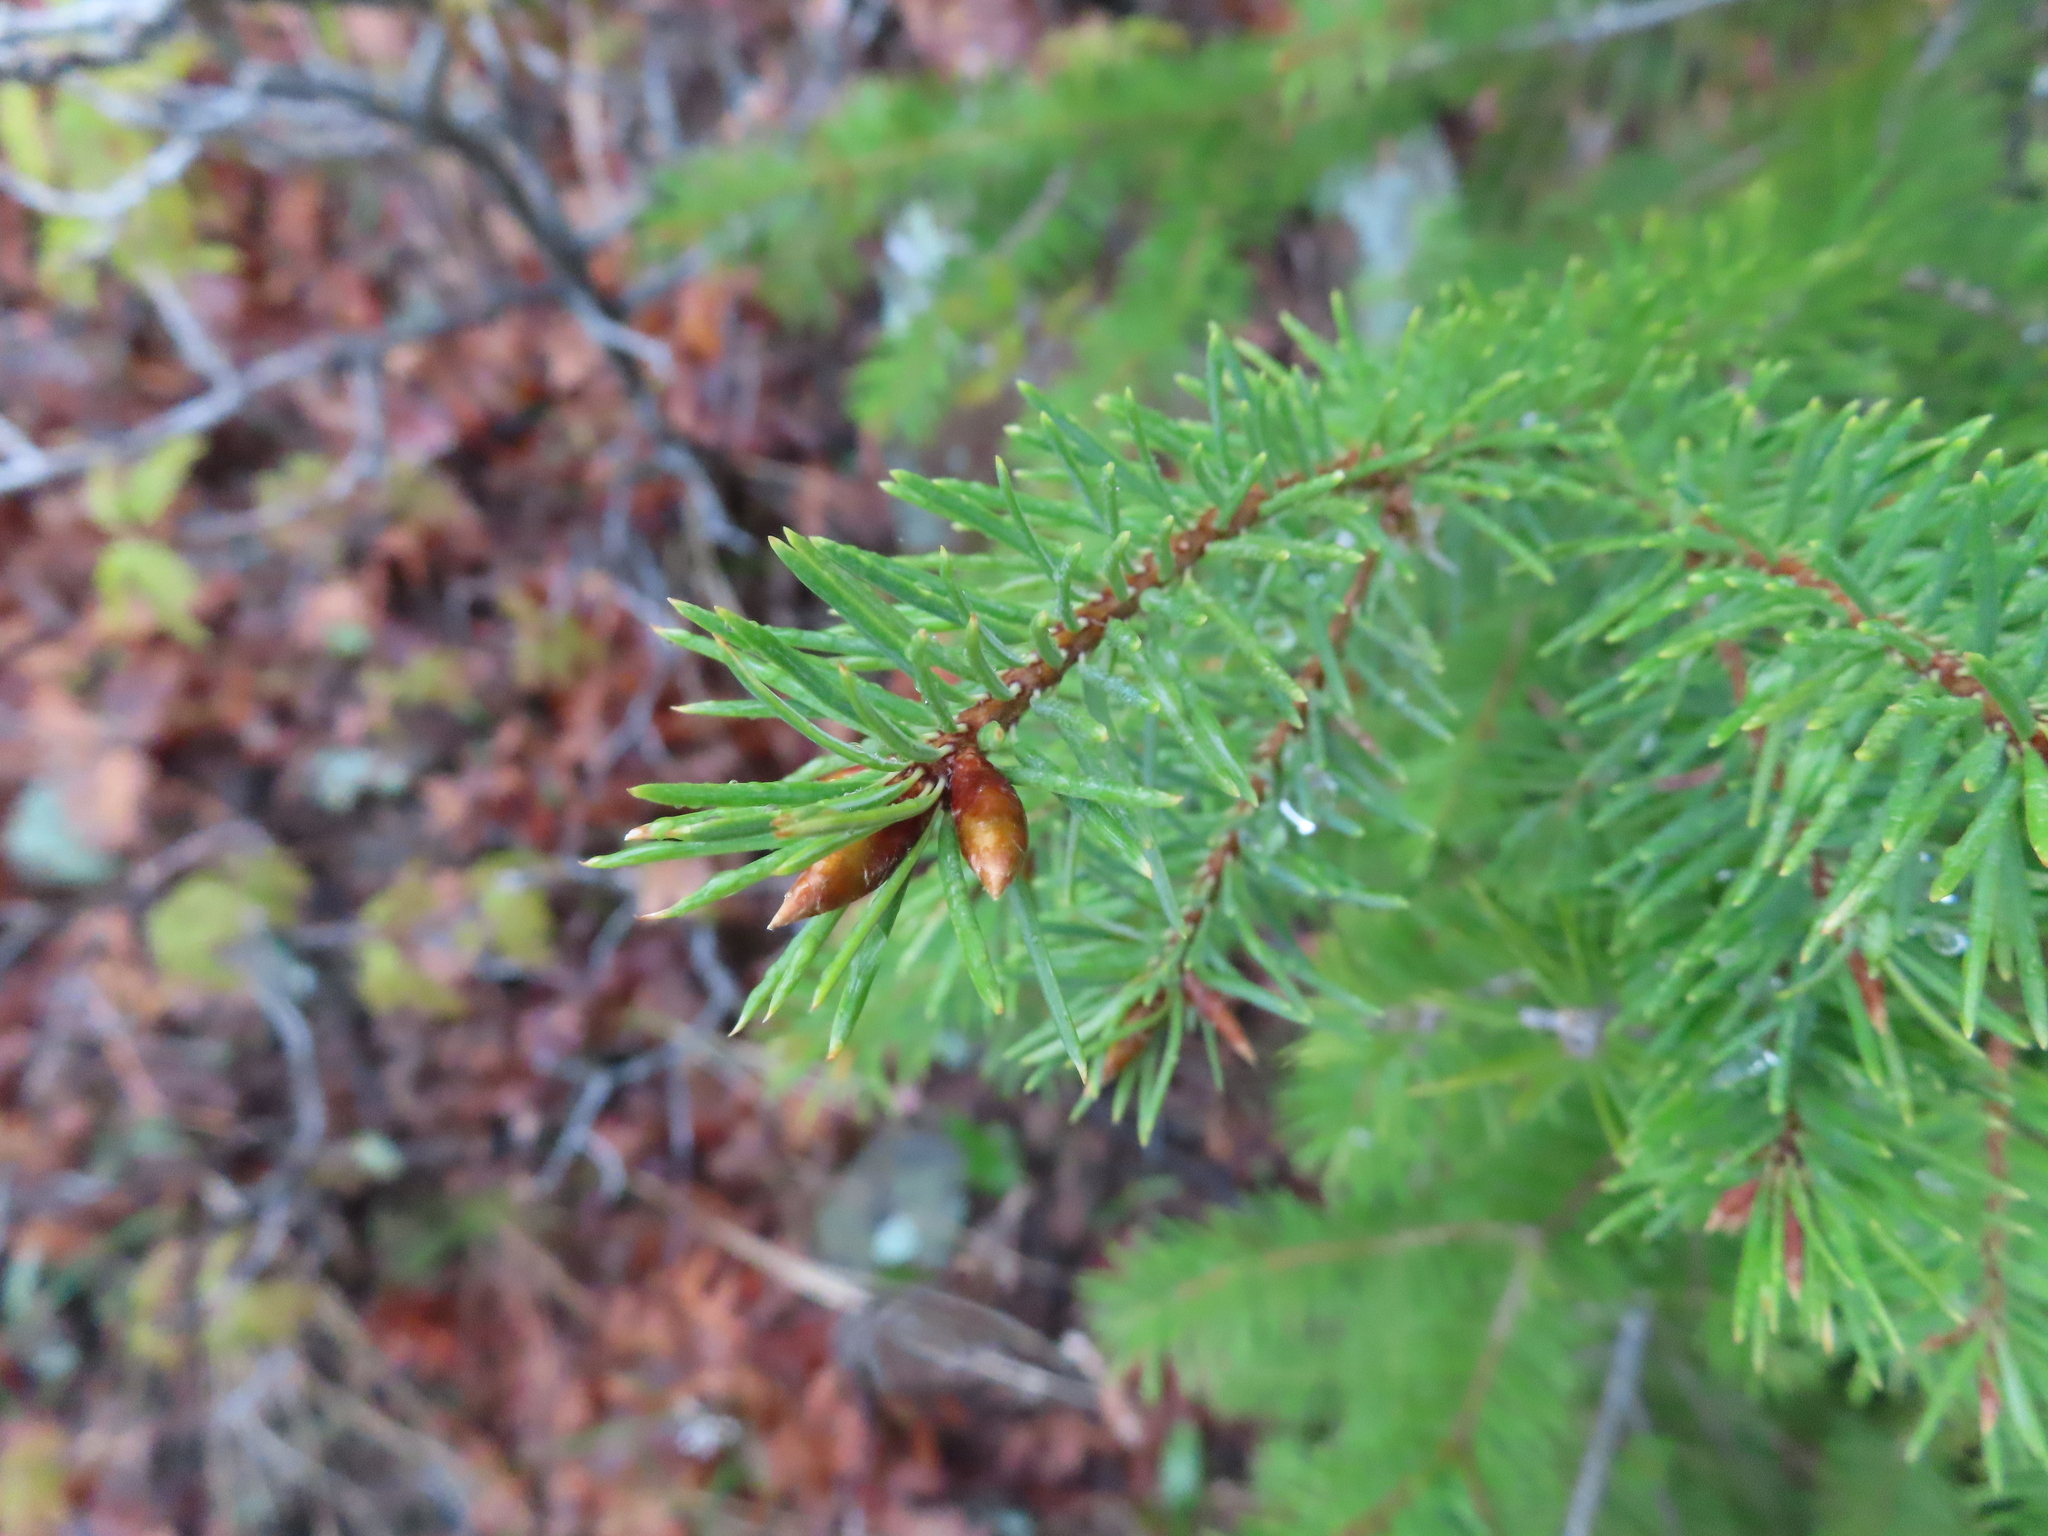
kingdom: Plantae
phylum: Tracheophyta
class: Pinopsida
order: Pinales
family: Pinaceae
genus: Pseudotsuga
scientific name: Pseudotsuga menziesii
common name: Douglas fir
